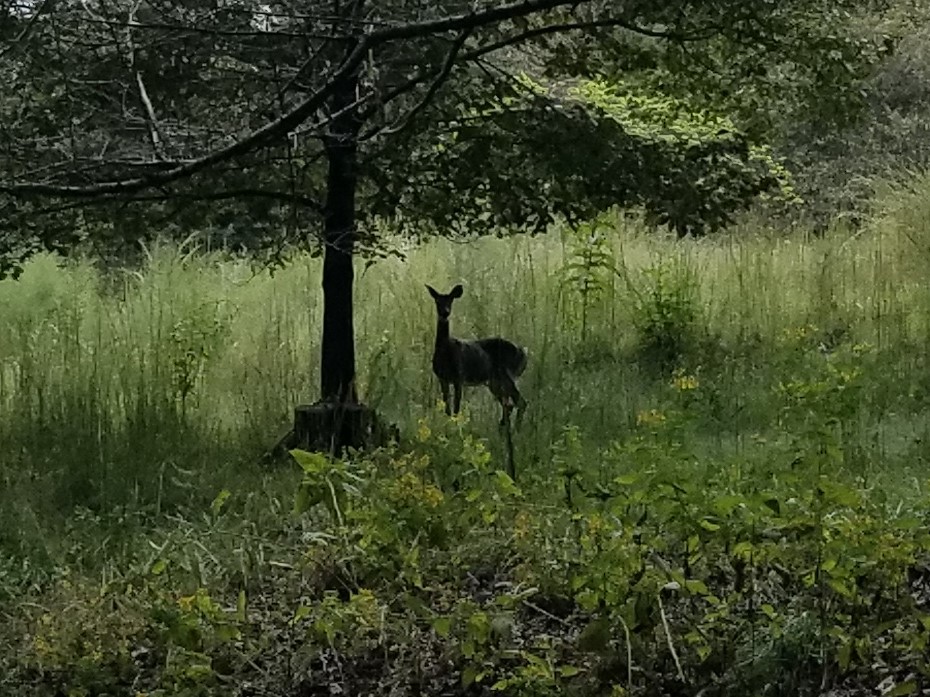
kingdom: Animalia
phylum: Chordata
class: Mammalia
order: Artiodactyla
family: Cervidae
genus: Odocoileus
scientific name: Odocoileus virginianus
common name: White-tailed deer
